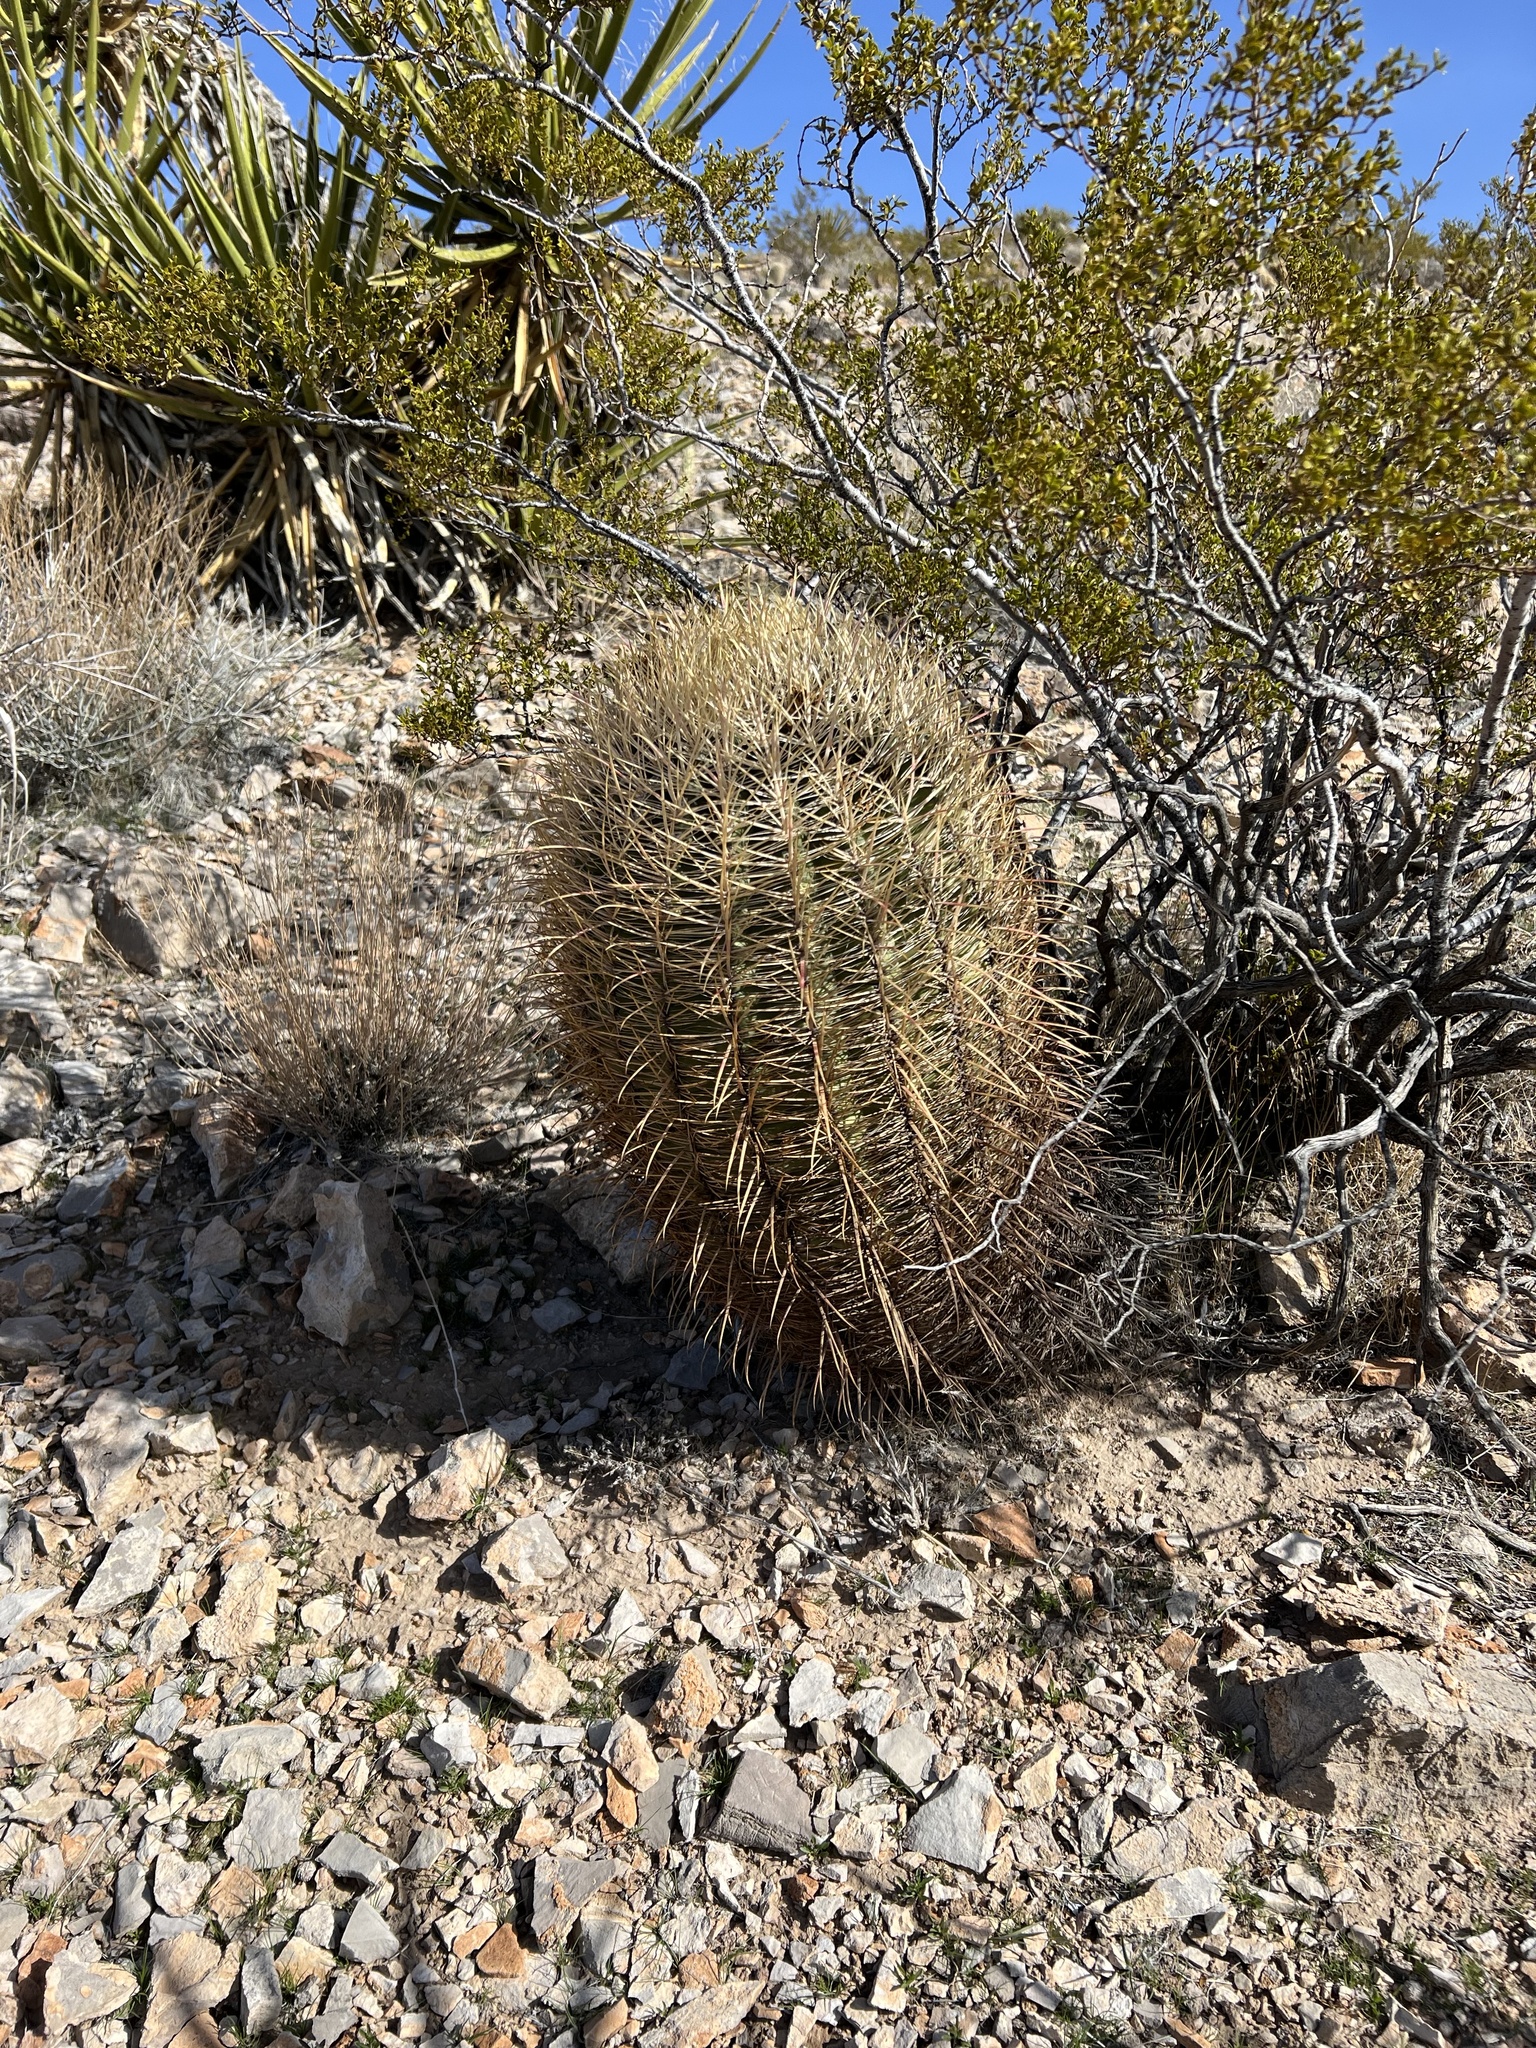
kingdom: Plantae
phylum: Tracheophyta
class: Magnoliopsida
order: Caryophyllales
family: Cactaceae
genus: Ferocactus
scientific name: Ferocactus cylindraceus
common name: California barrel cactus
